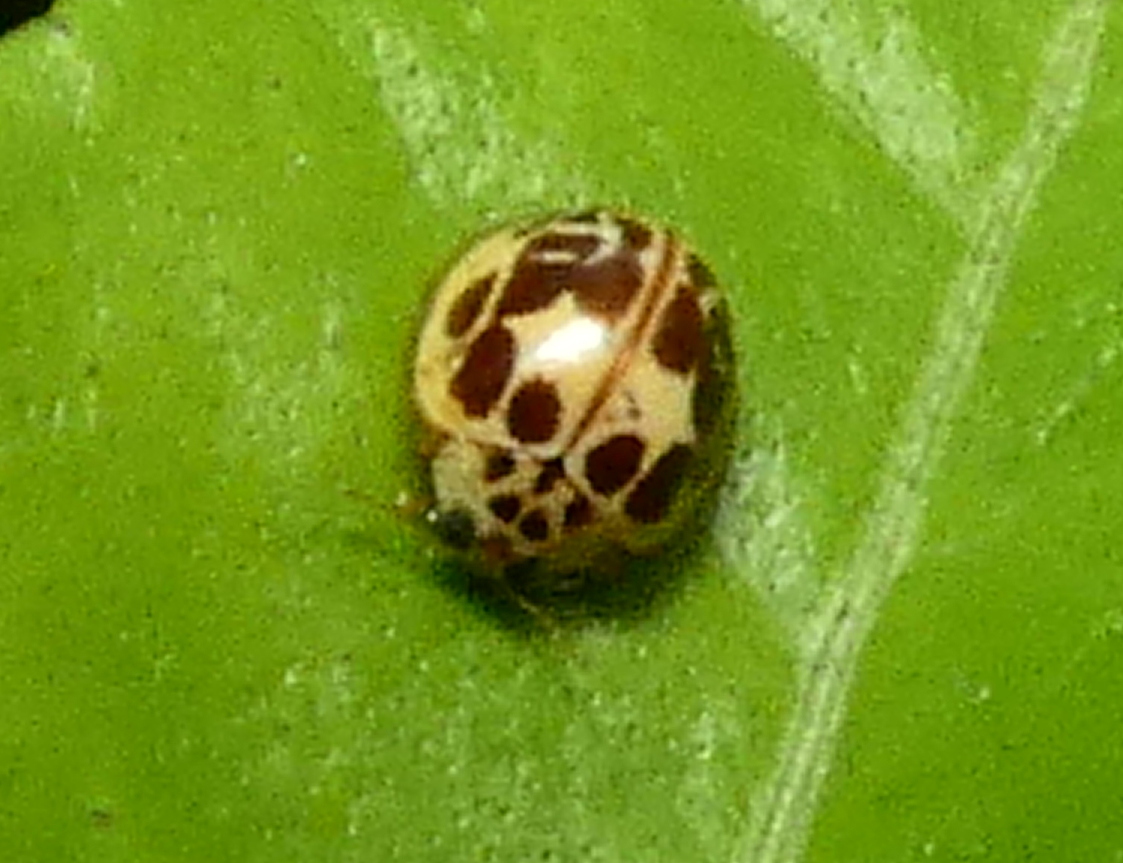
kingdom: Animalia
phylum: Arthropoda
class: Insecta
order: Coleoptera
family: Coccinellidae
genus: Psyllobora
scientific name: Psyllobora confluens
